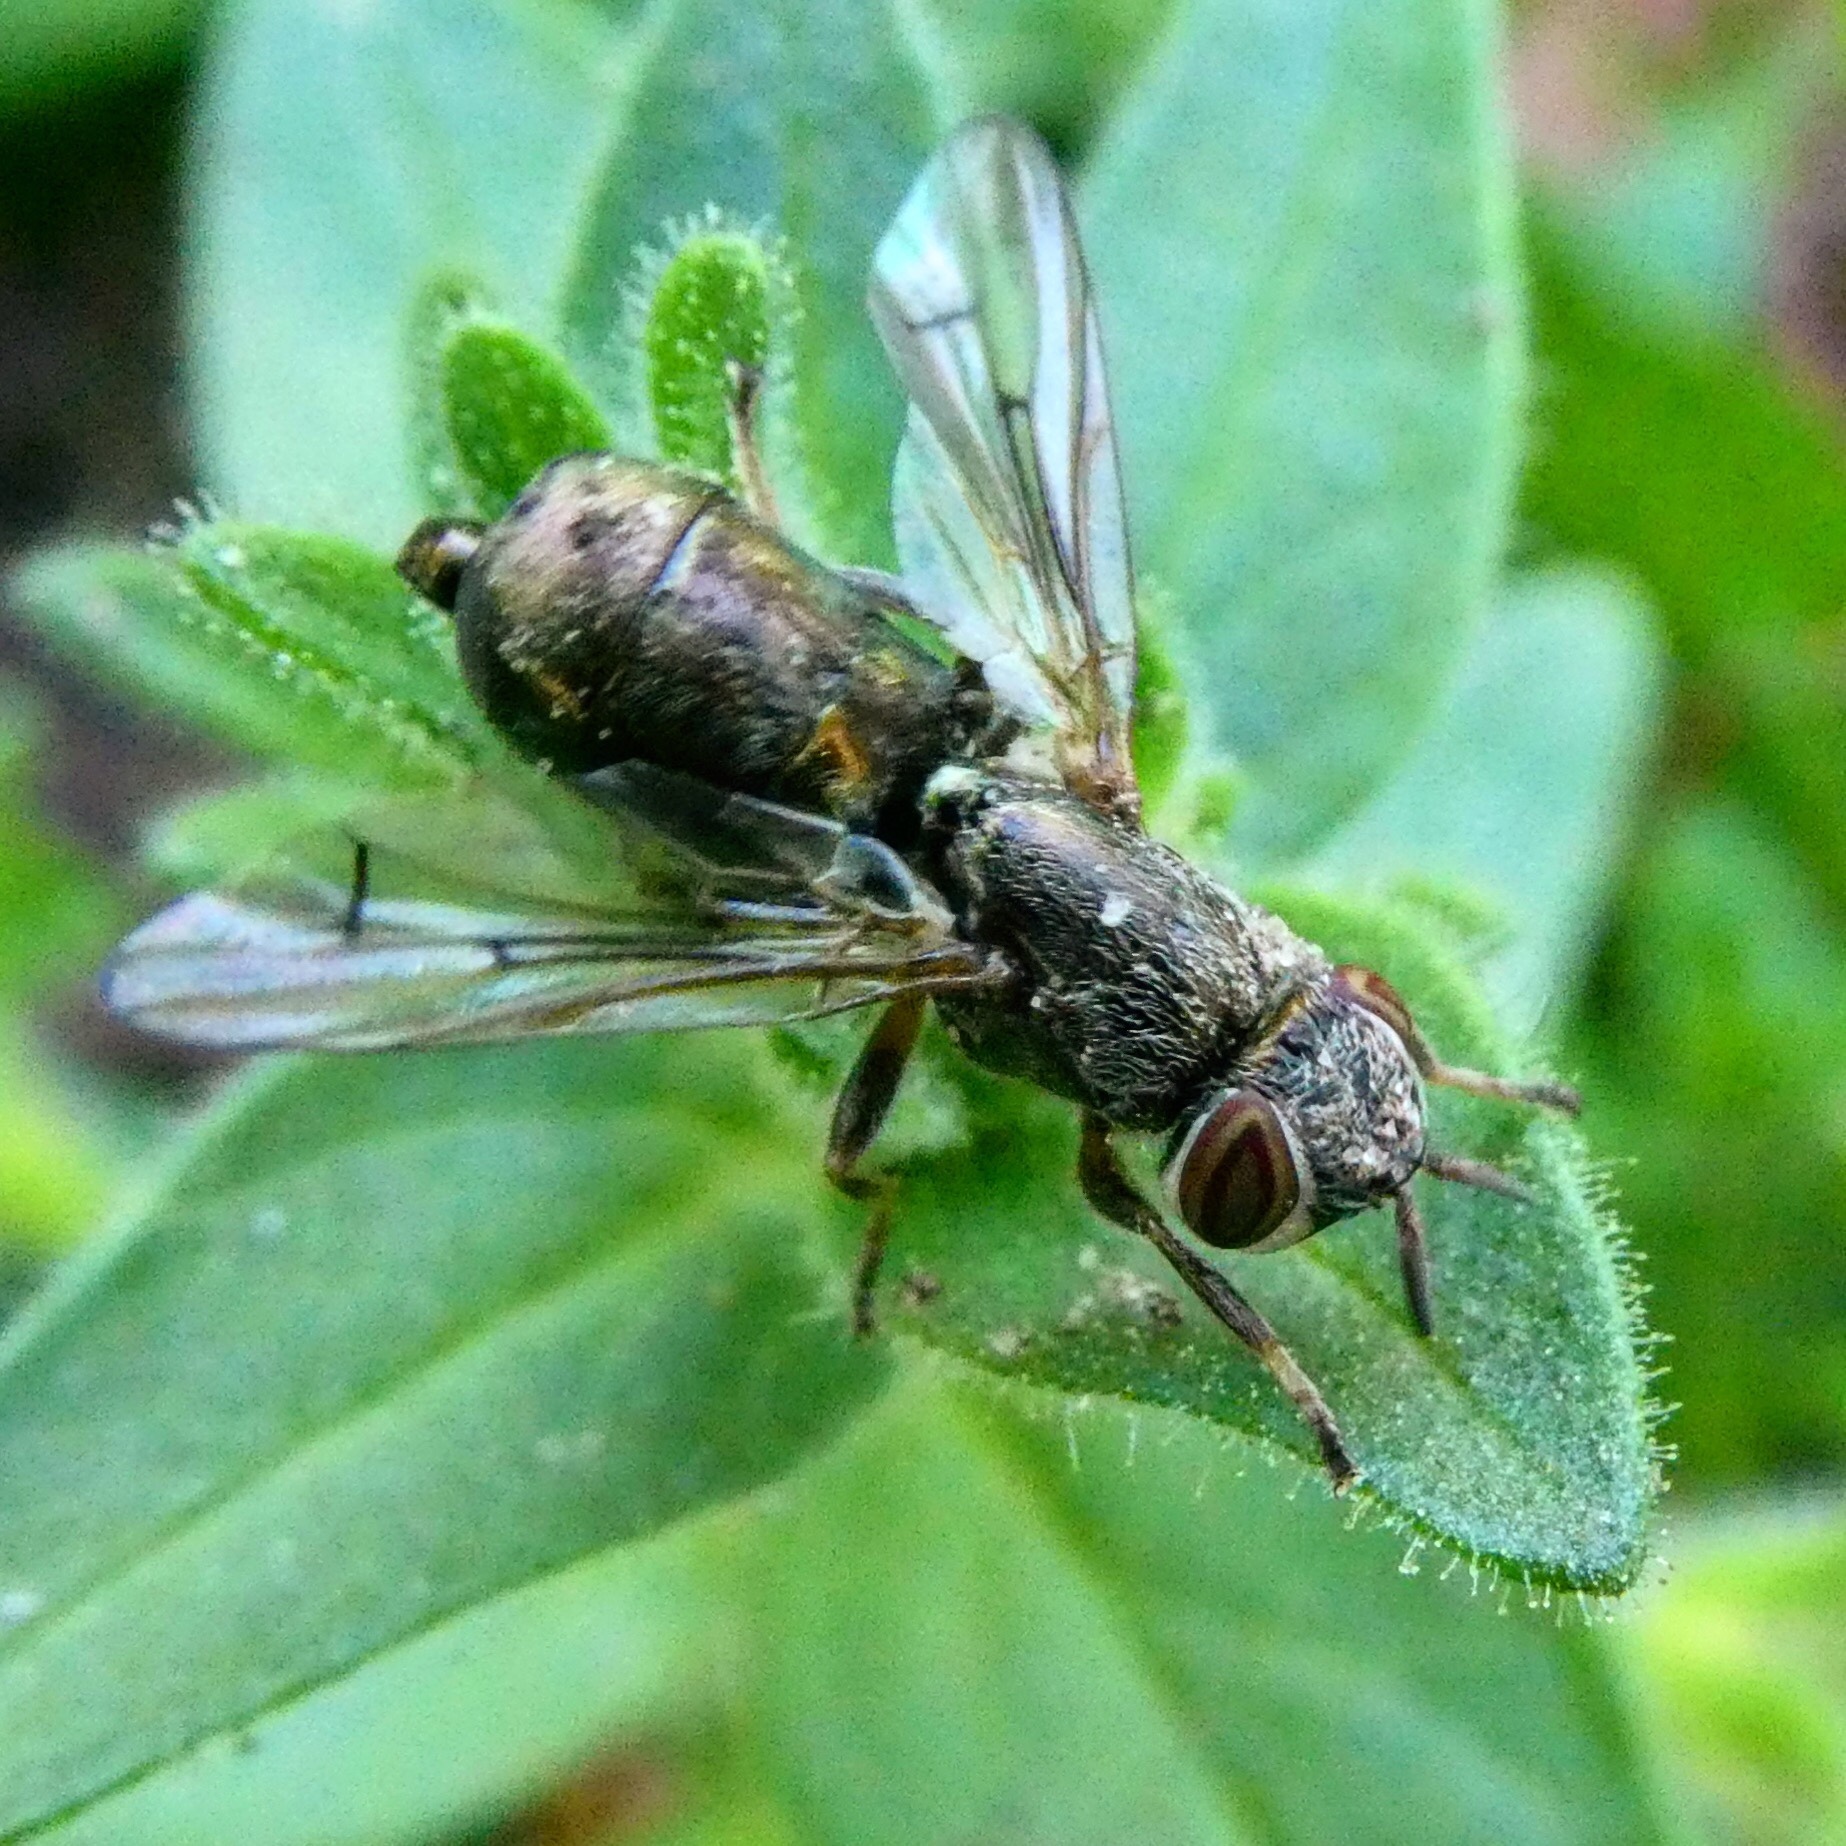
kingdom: Animalia
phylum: Arthropoda
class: Insecta
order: Diptera
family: Platystomatidae
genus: Senopterina
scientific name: Senopterina foxleei
